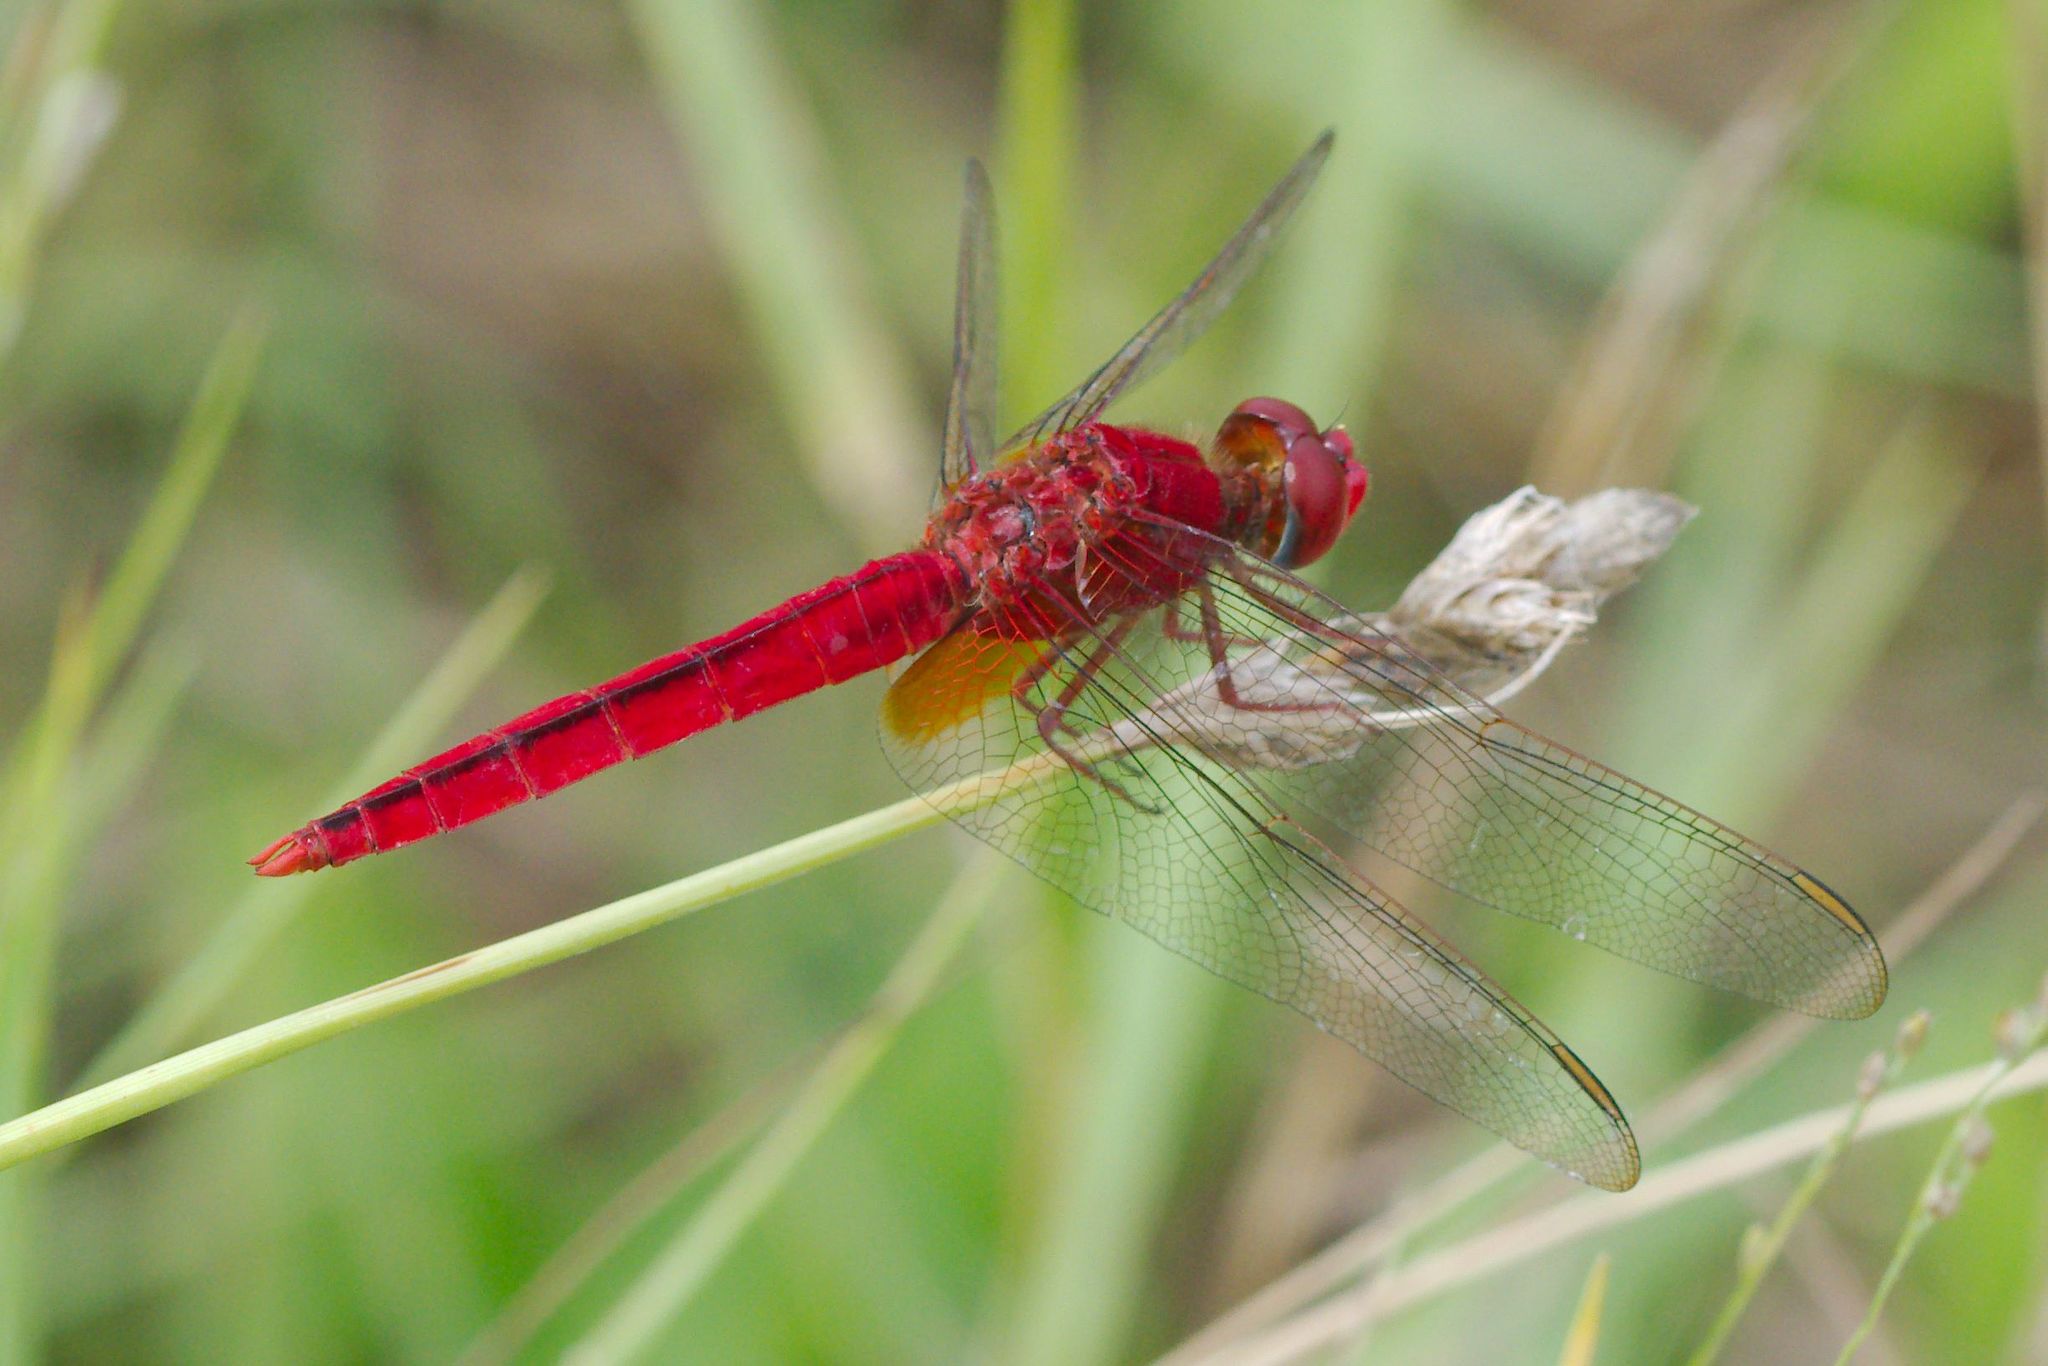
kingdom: Animalia
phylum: Arthropoda
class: Insecta
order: Odonata
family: Libellulidae
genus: Crocothemis
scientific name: Crocothemis servilia
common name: Scarlet skimmer
